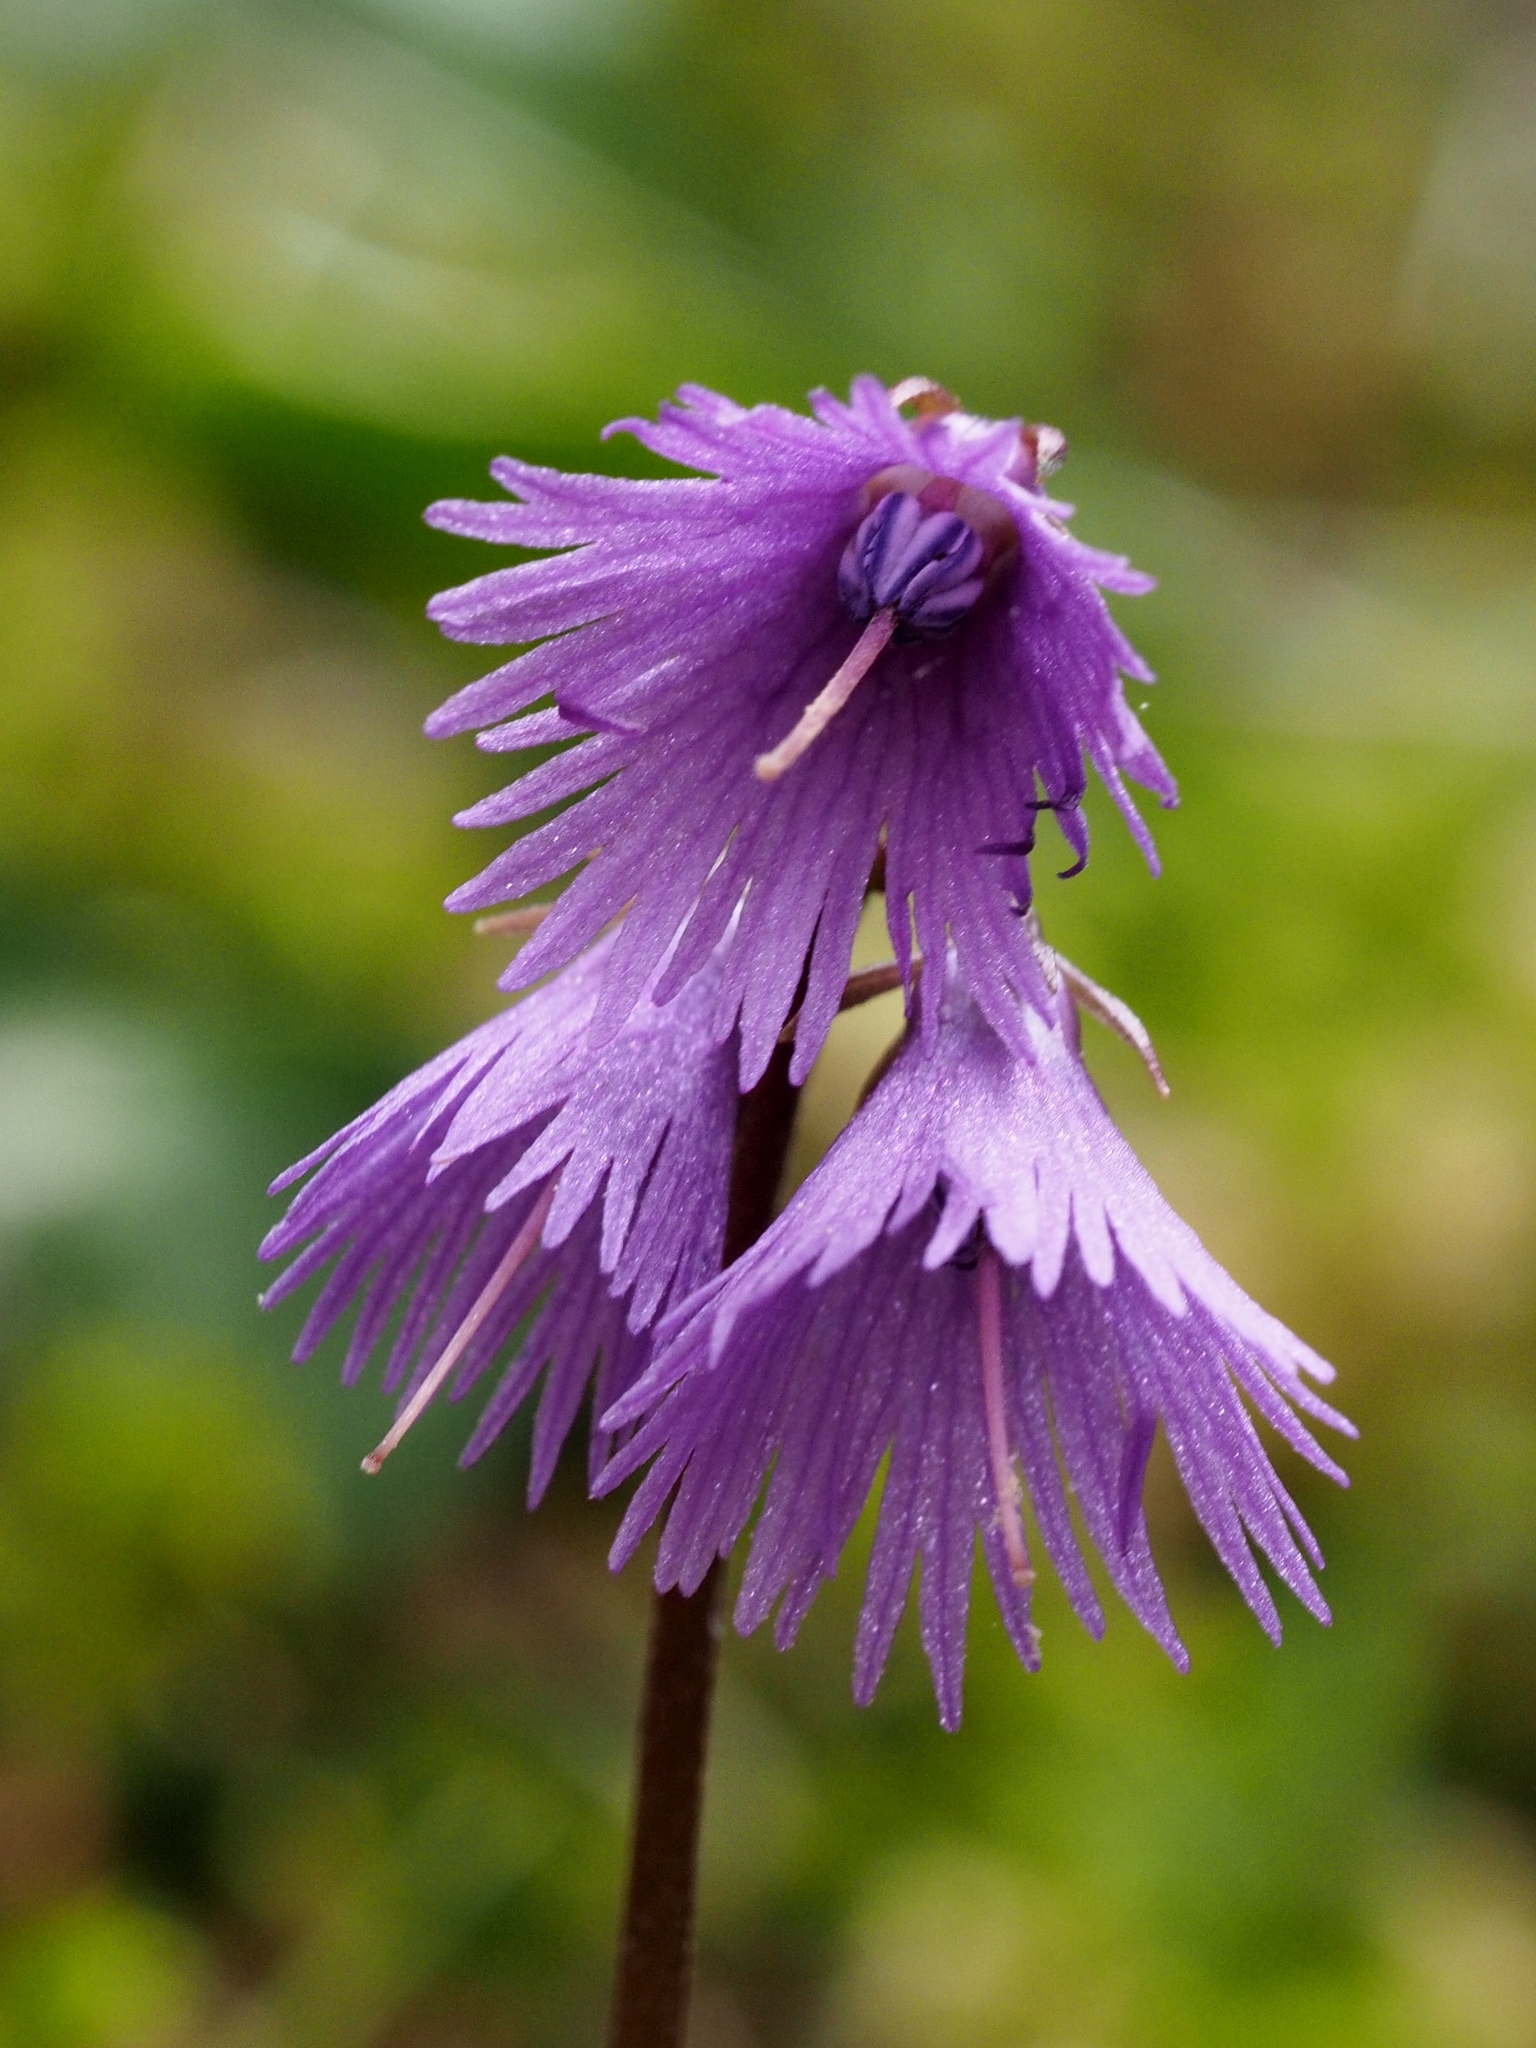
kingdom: Plantae
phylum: Tracheophyta
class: Magnoliopsida
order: Ericales
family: Primulaceae
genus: Soldanella
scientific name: Soldanella alpina
